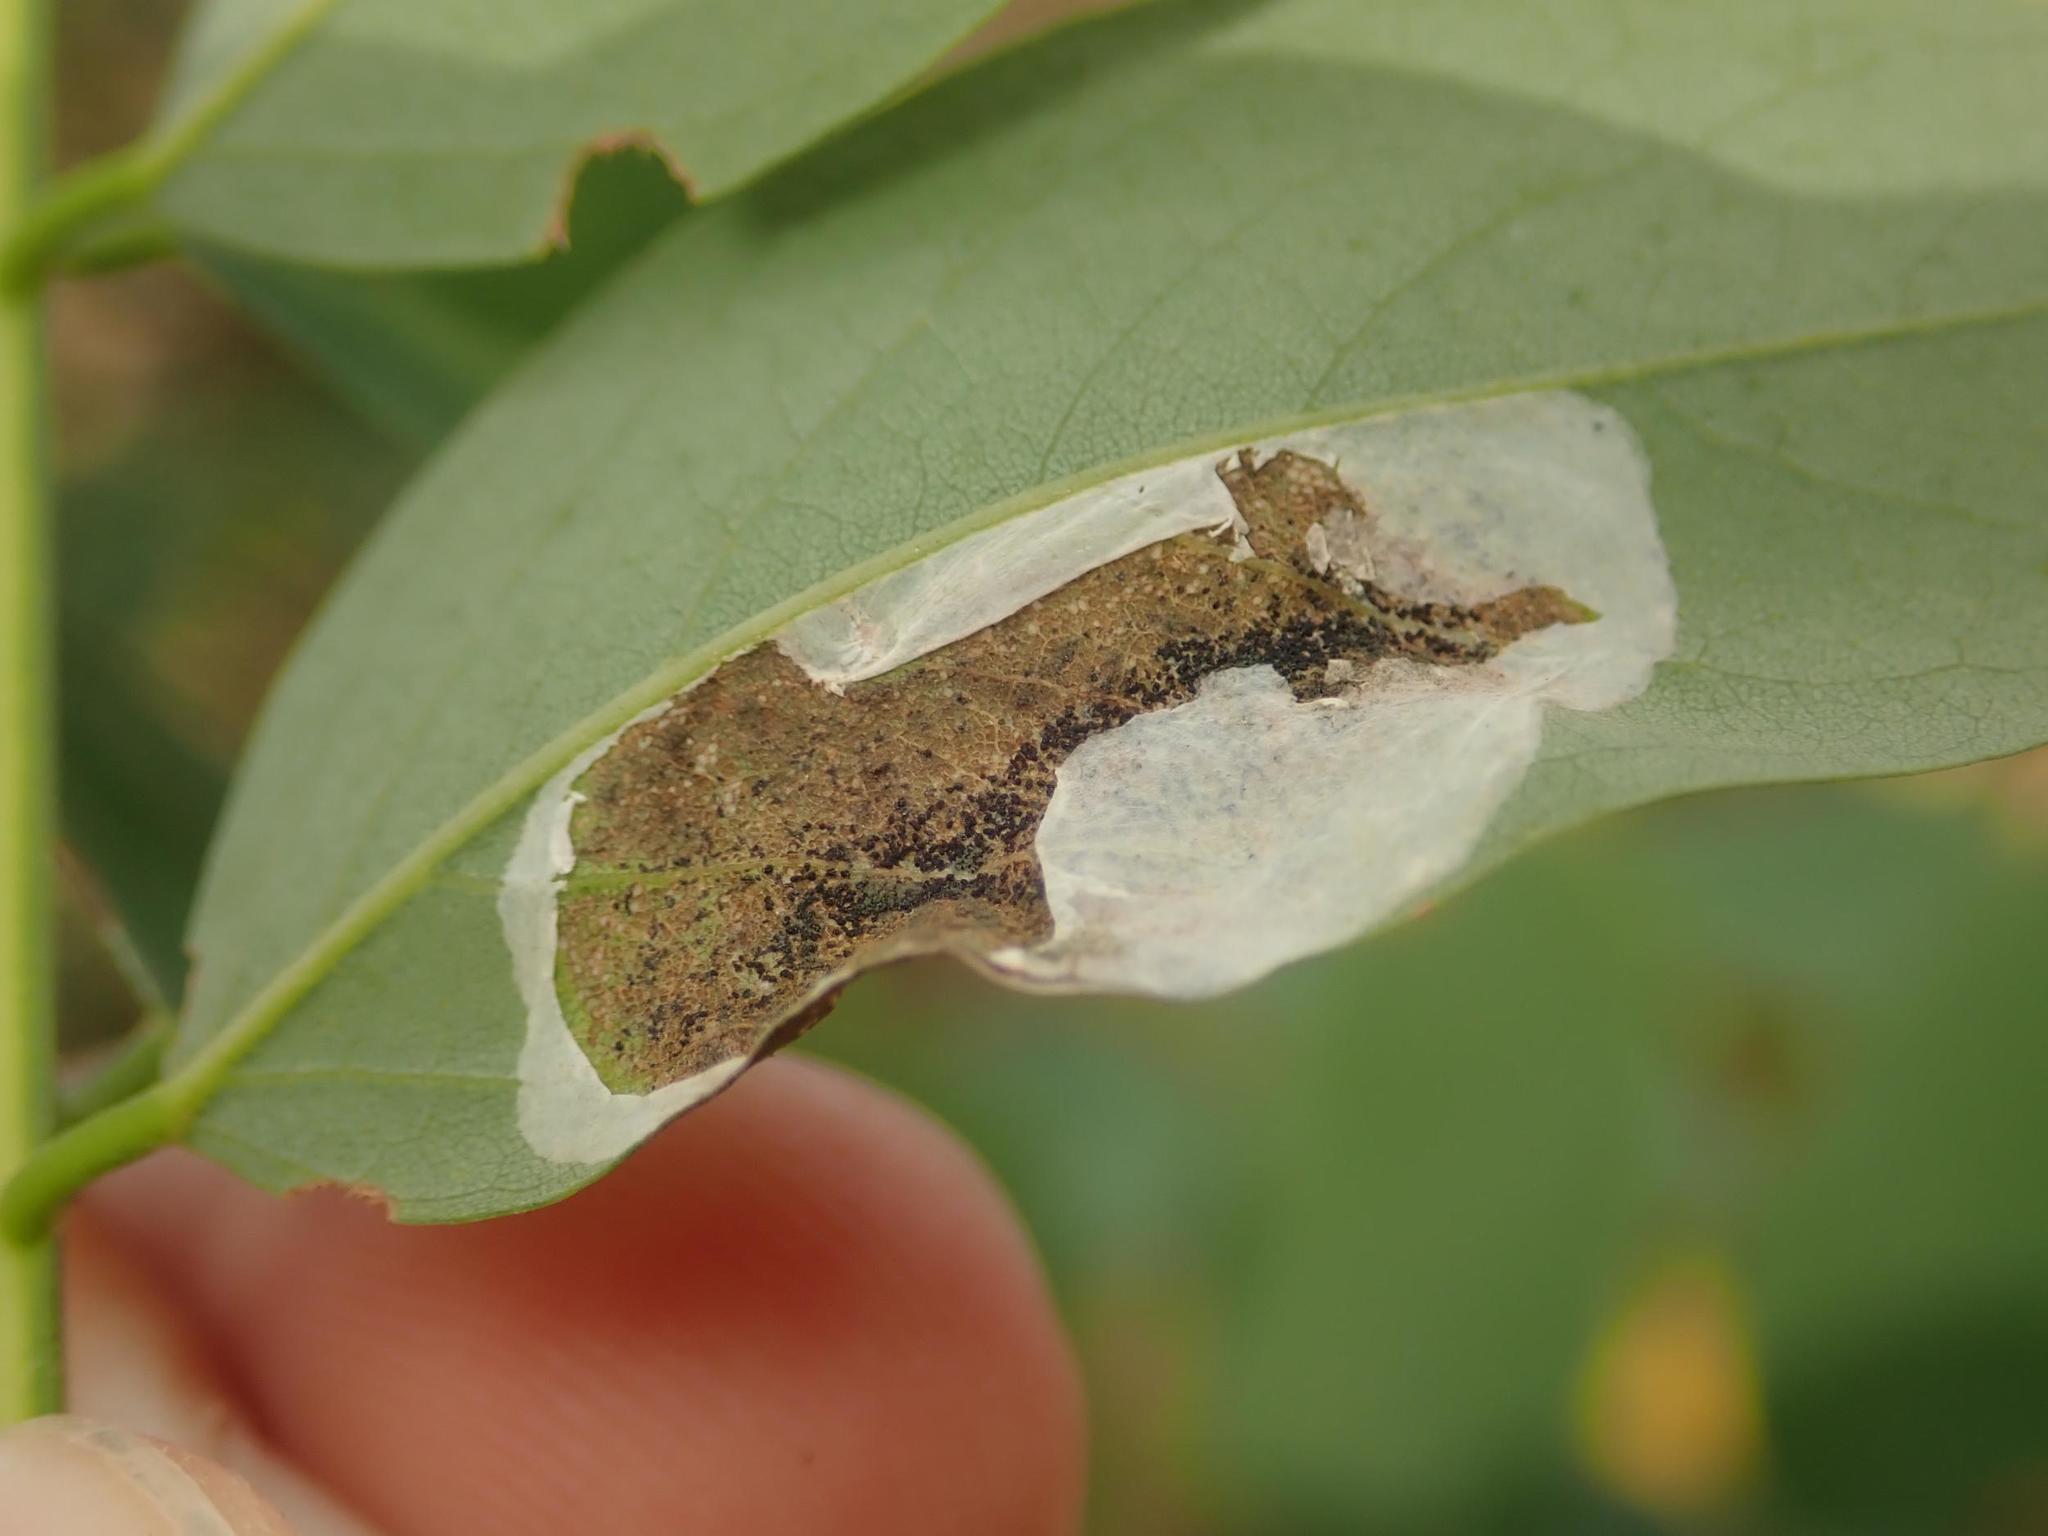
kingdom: Animalia
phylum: Arthropoda
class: Insecta
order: Lepidoptera
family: Gracillariidae
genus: Macrosaccus
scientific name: Macrosaccus robiniella
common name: Leaf blotch miner moth
